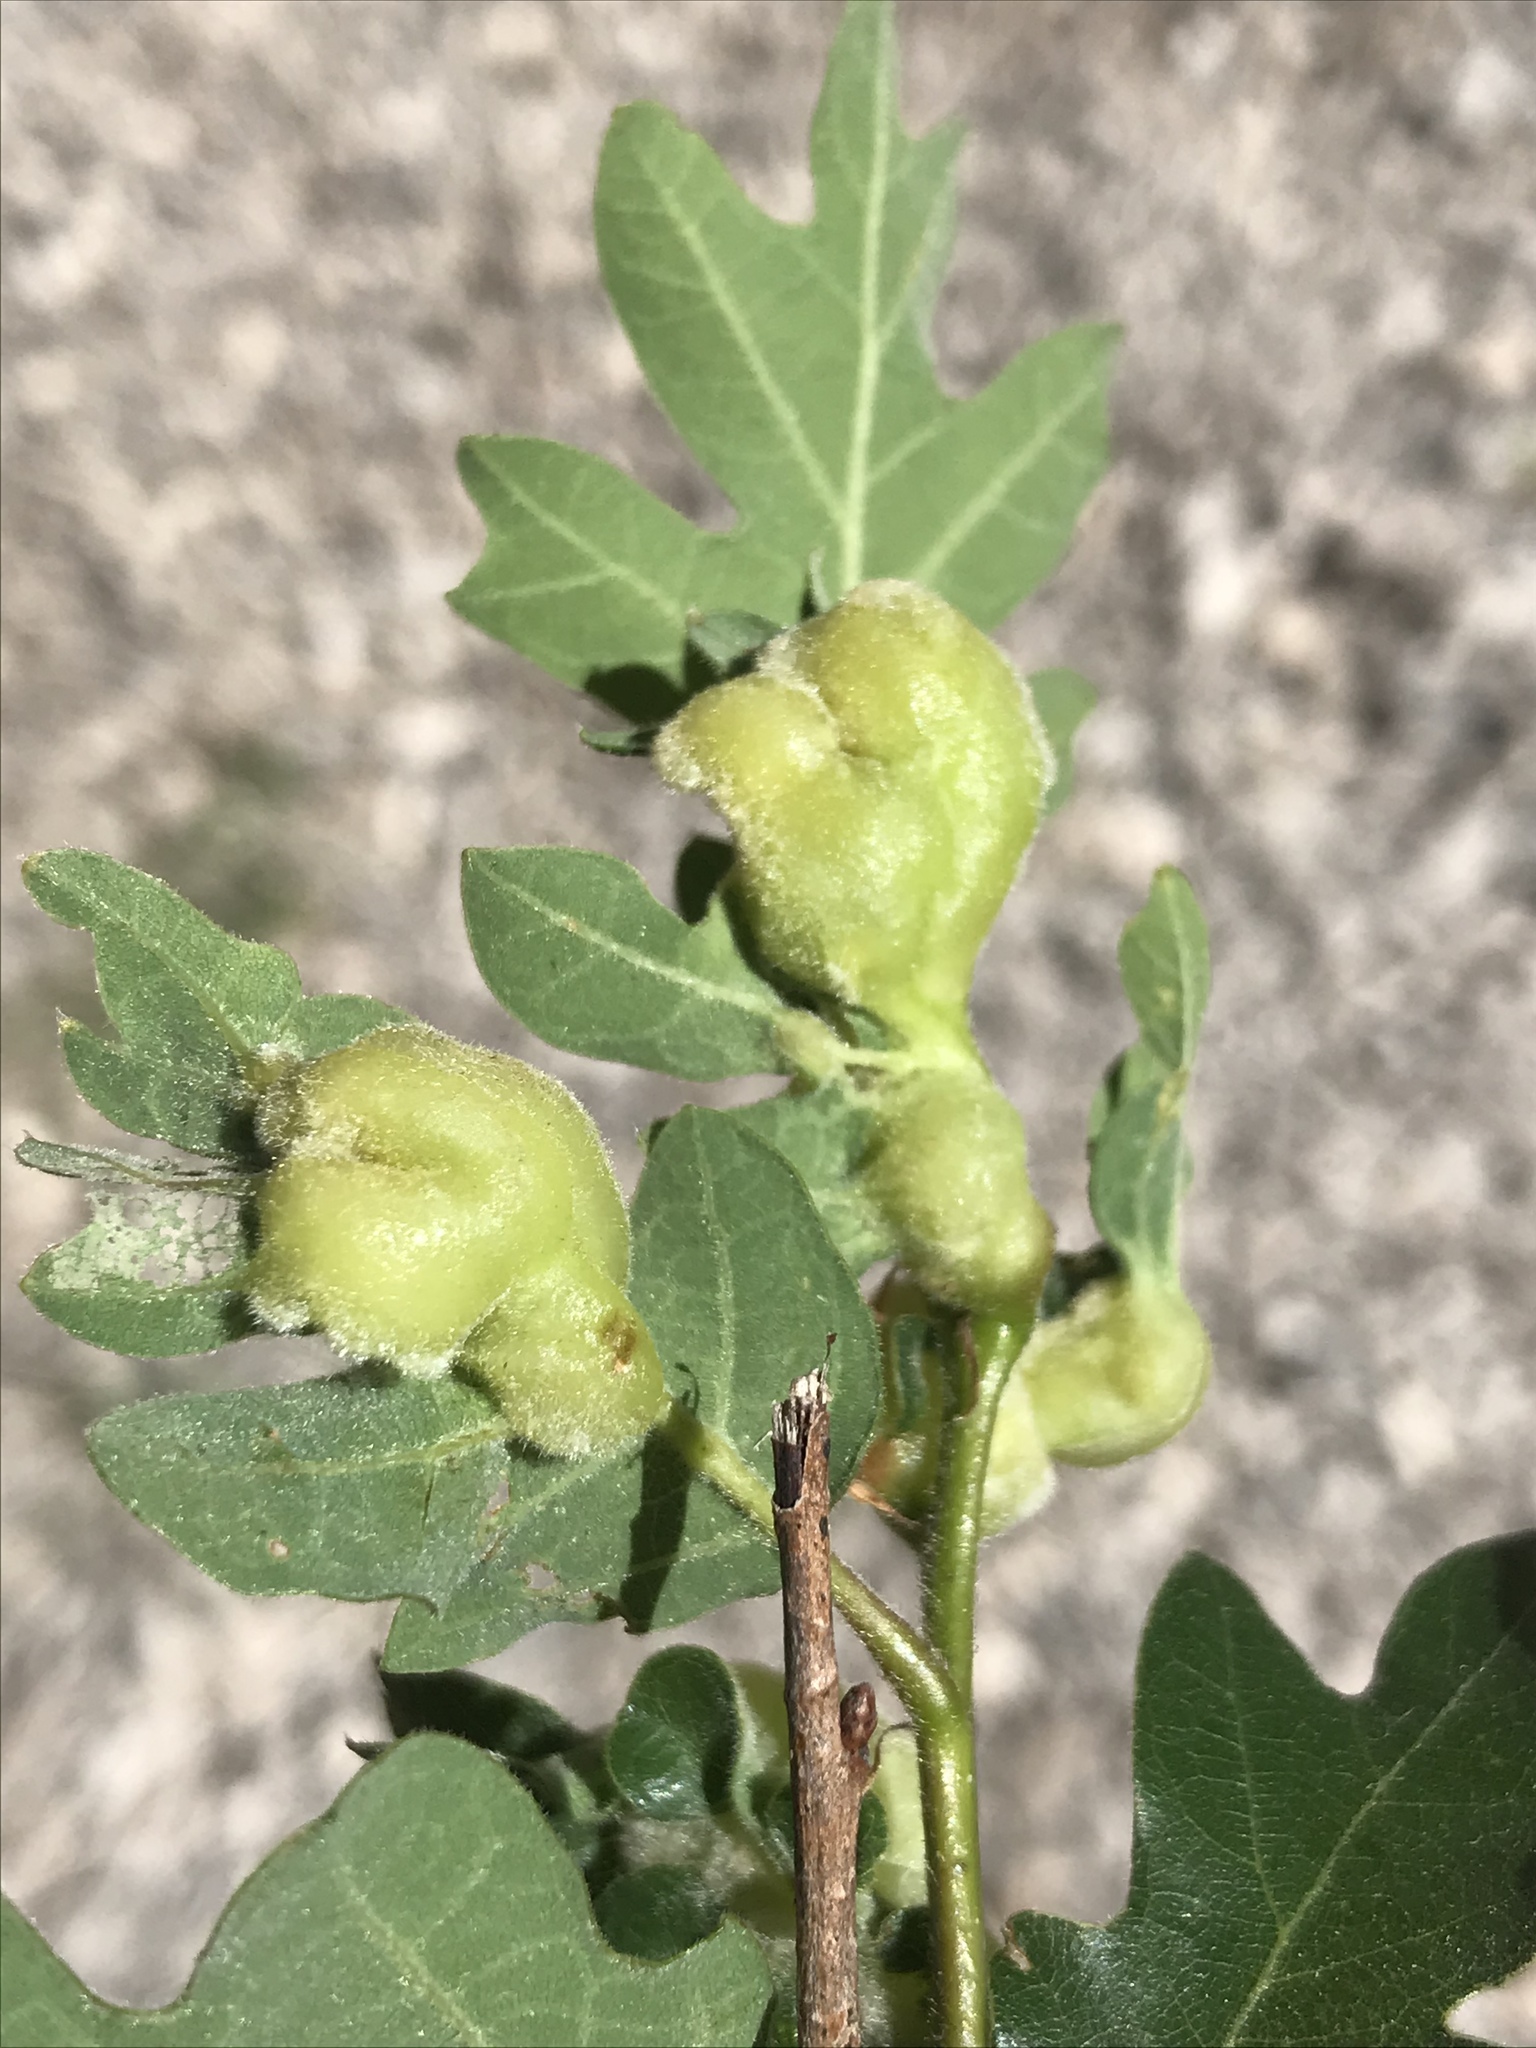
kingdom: Animalia
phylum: Arthropoda
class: Insecta
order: Hymenoptera
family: Cynipidae
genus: Neuroterus
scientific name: Neuroterus
